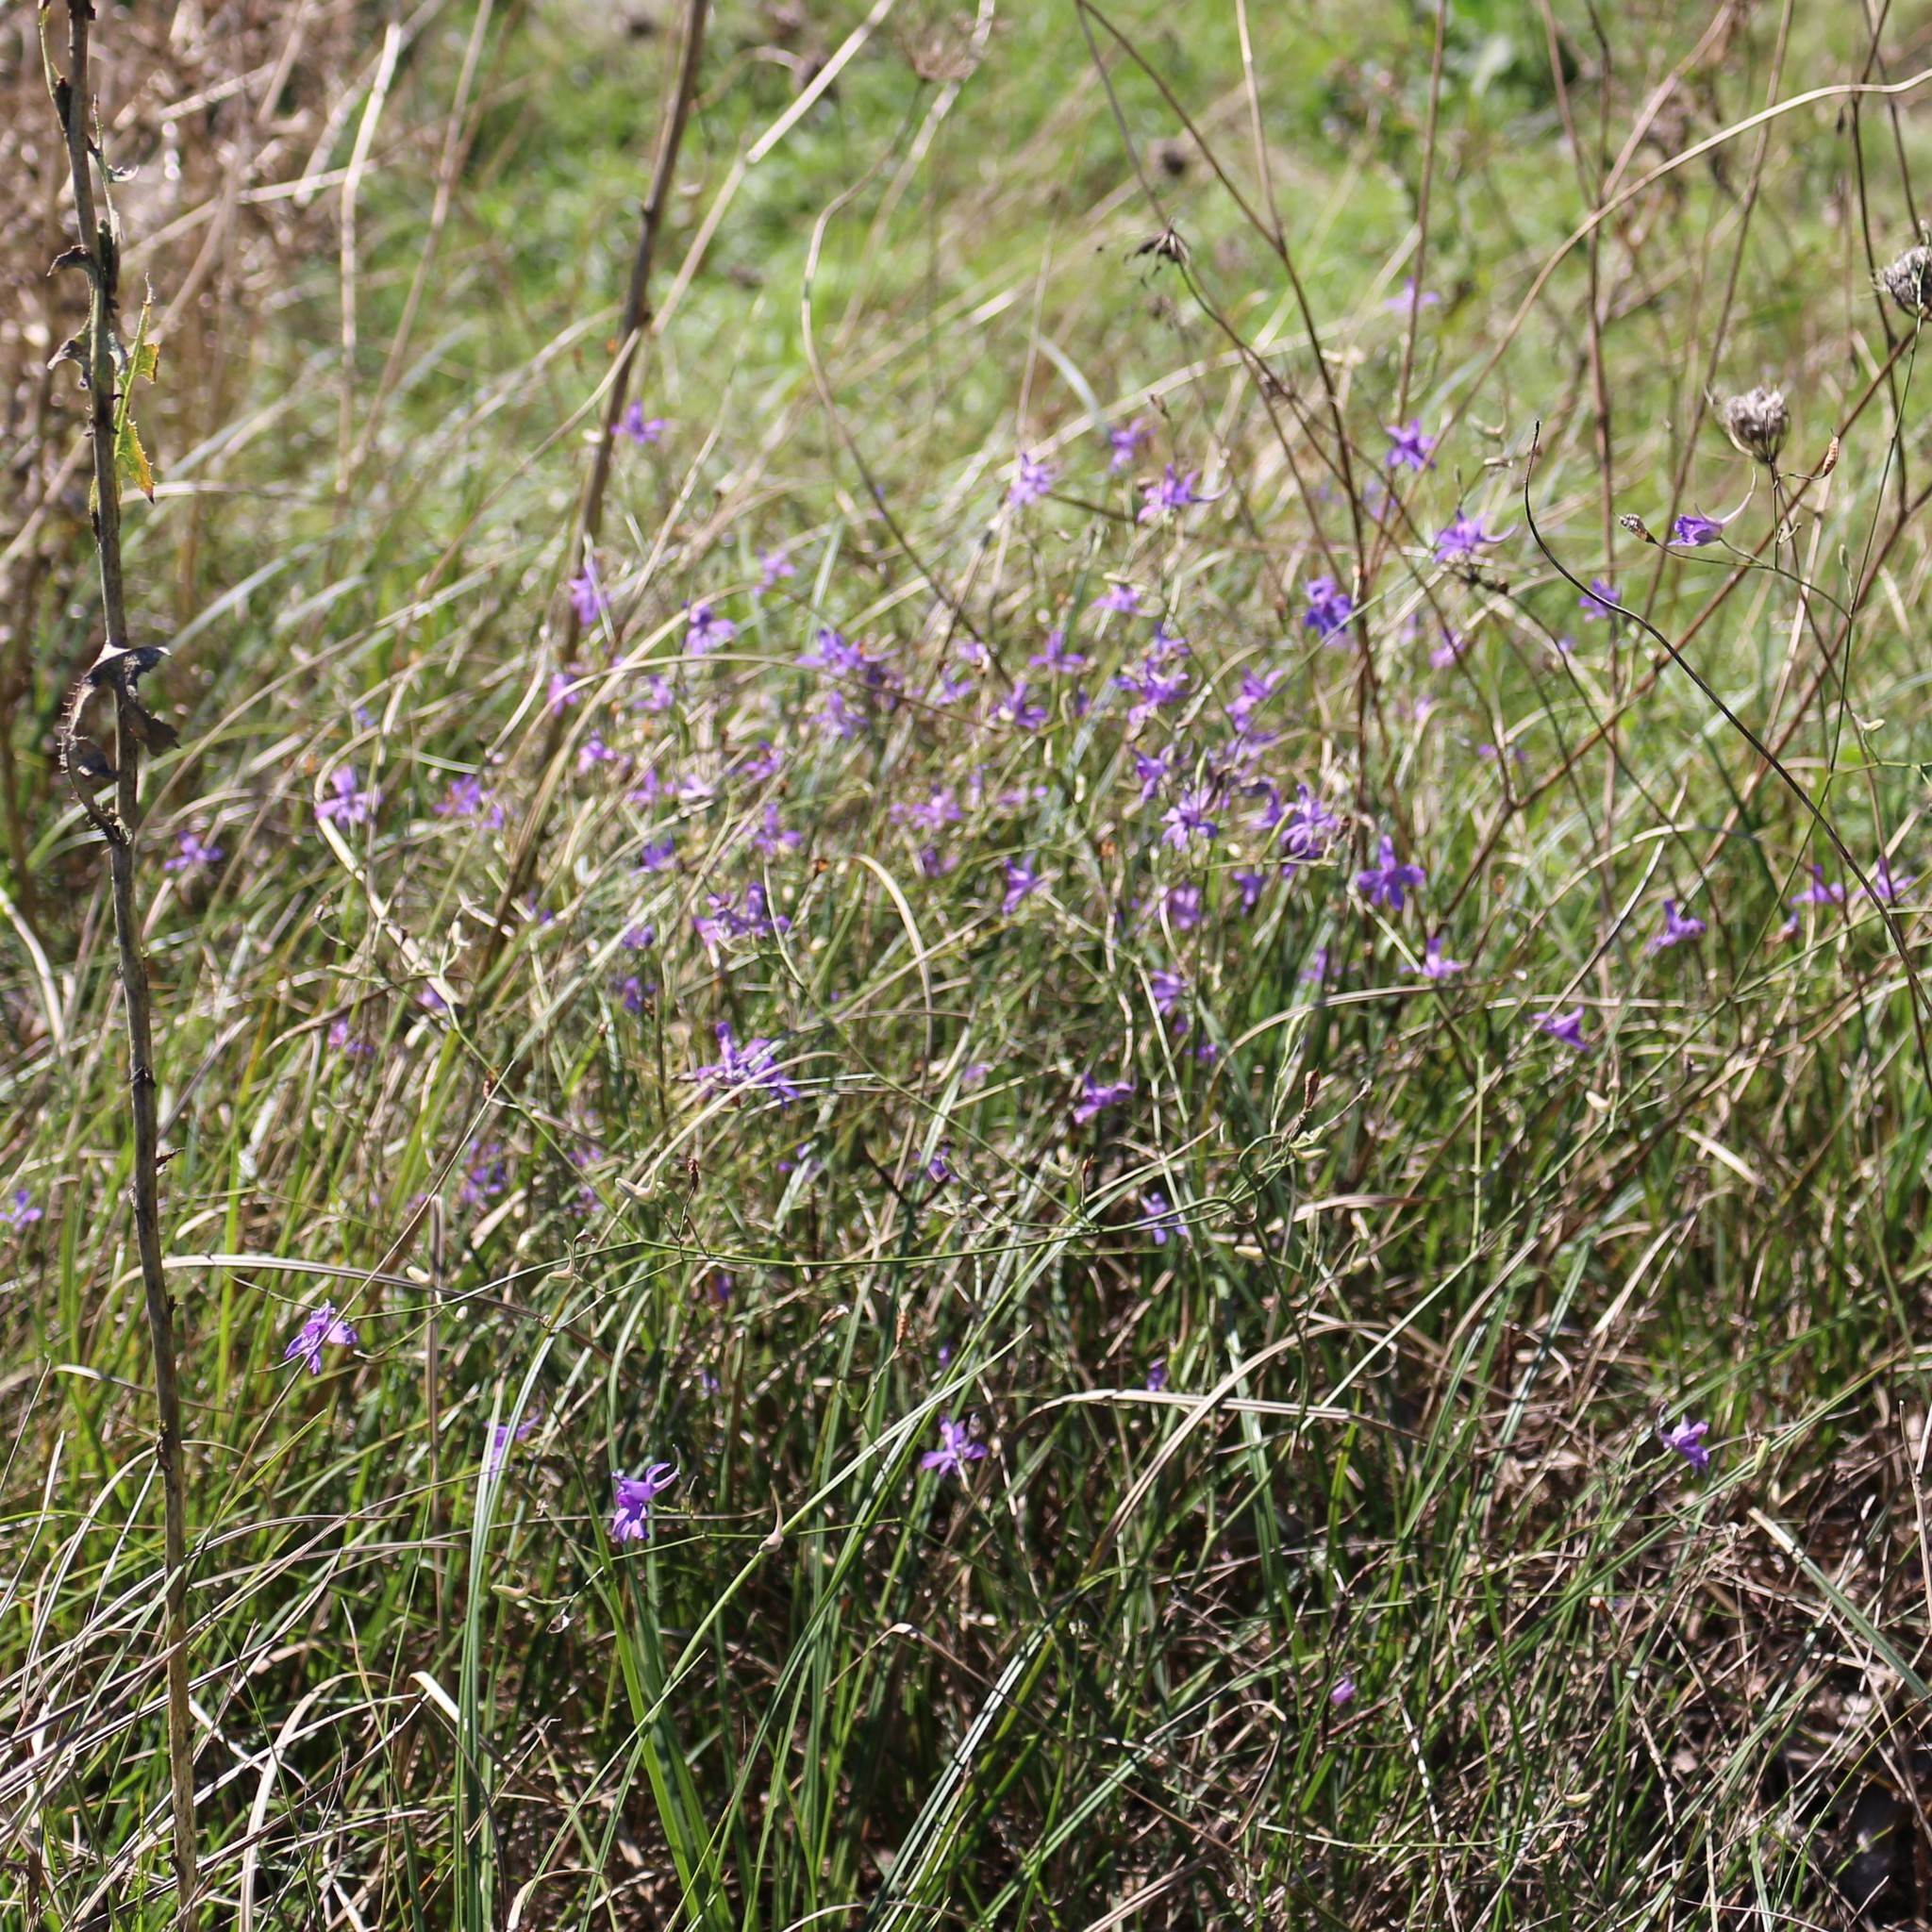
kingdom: Plantae
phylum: Tracheophyta
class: Magnoliopsida
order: Ranunculales
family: Ranunculaceae
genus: Delphinium
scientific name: Delphinium consolida
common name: Branching larkspur
